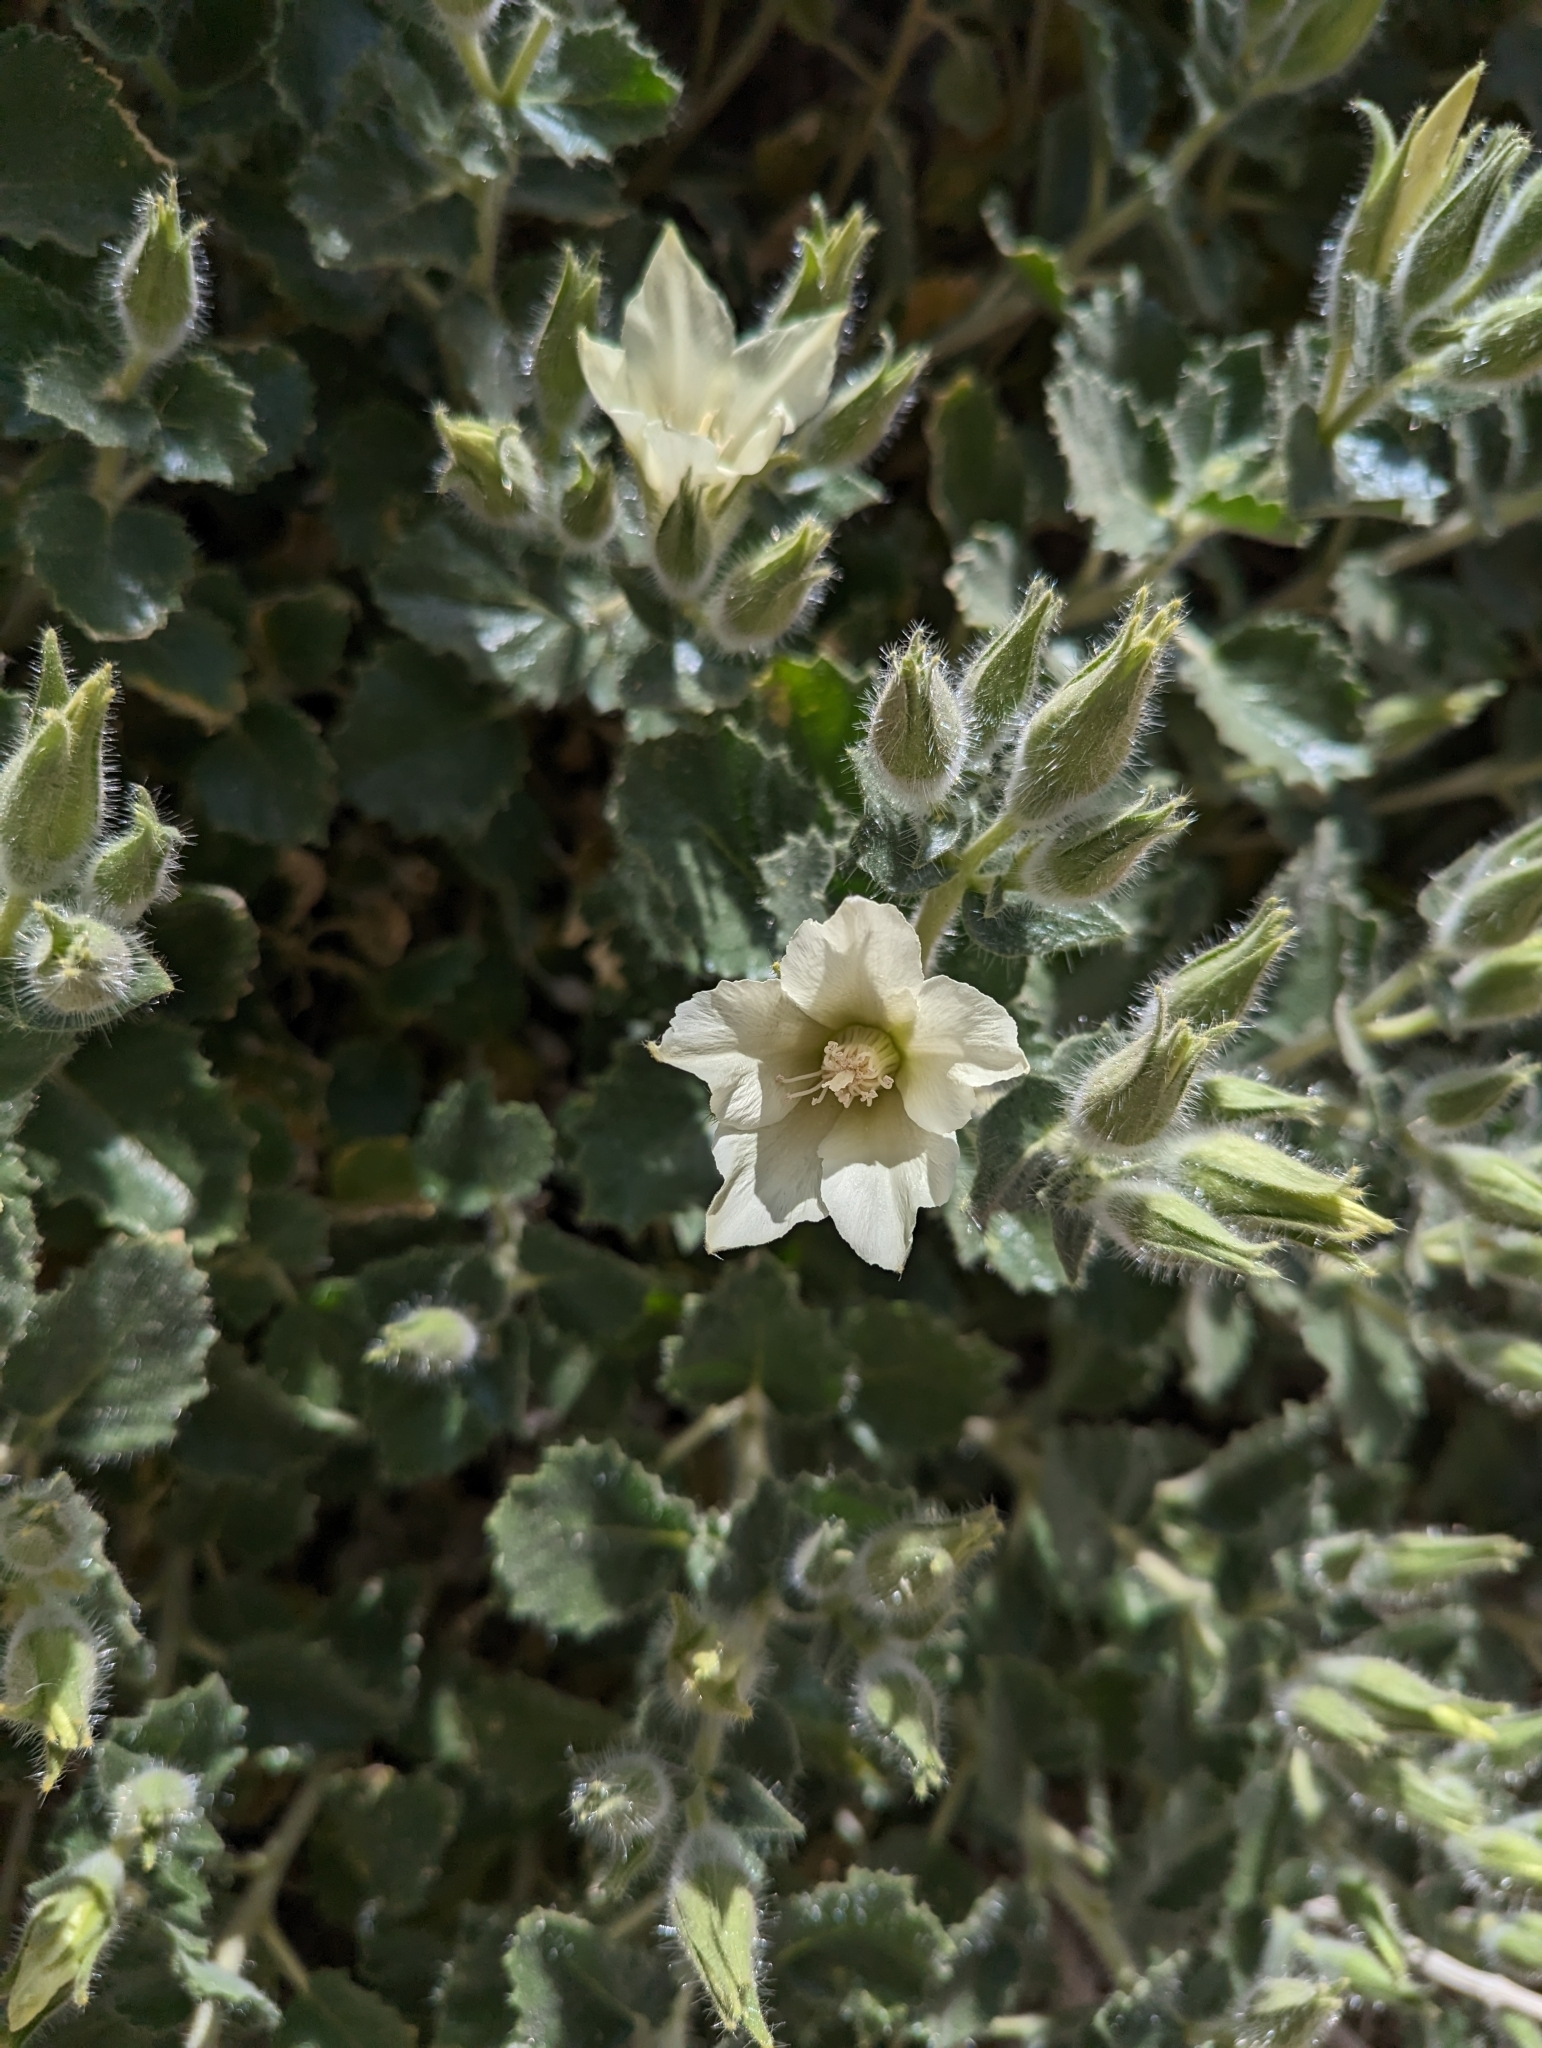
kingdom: Plantae
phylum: Tracheophyta
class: Magnoliopsida
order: Cornales
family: Loasaceae
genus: Eucnide
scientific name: Eucnide urens
